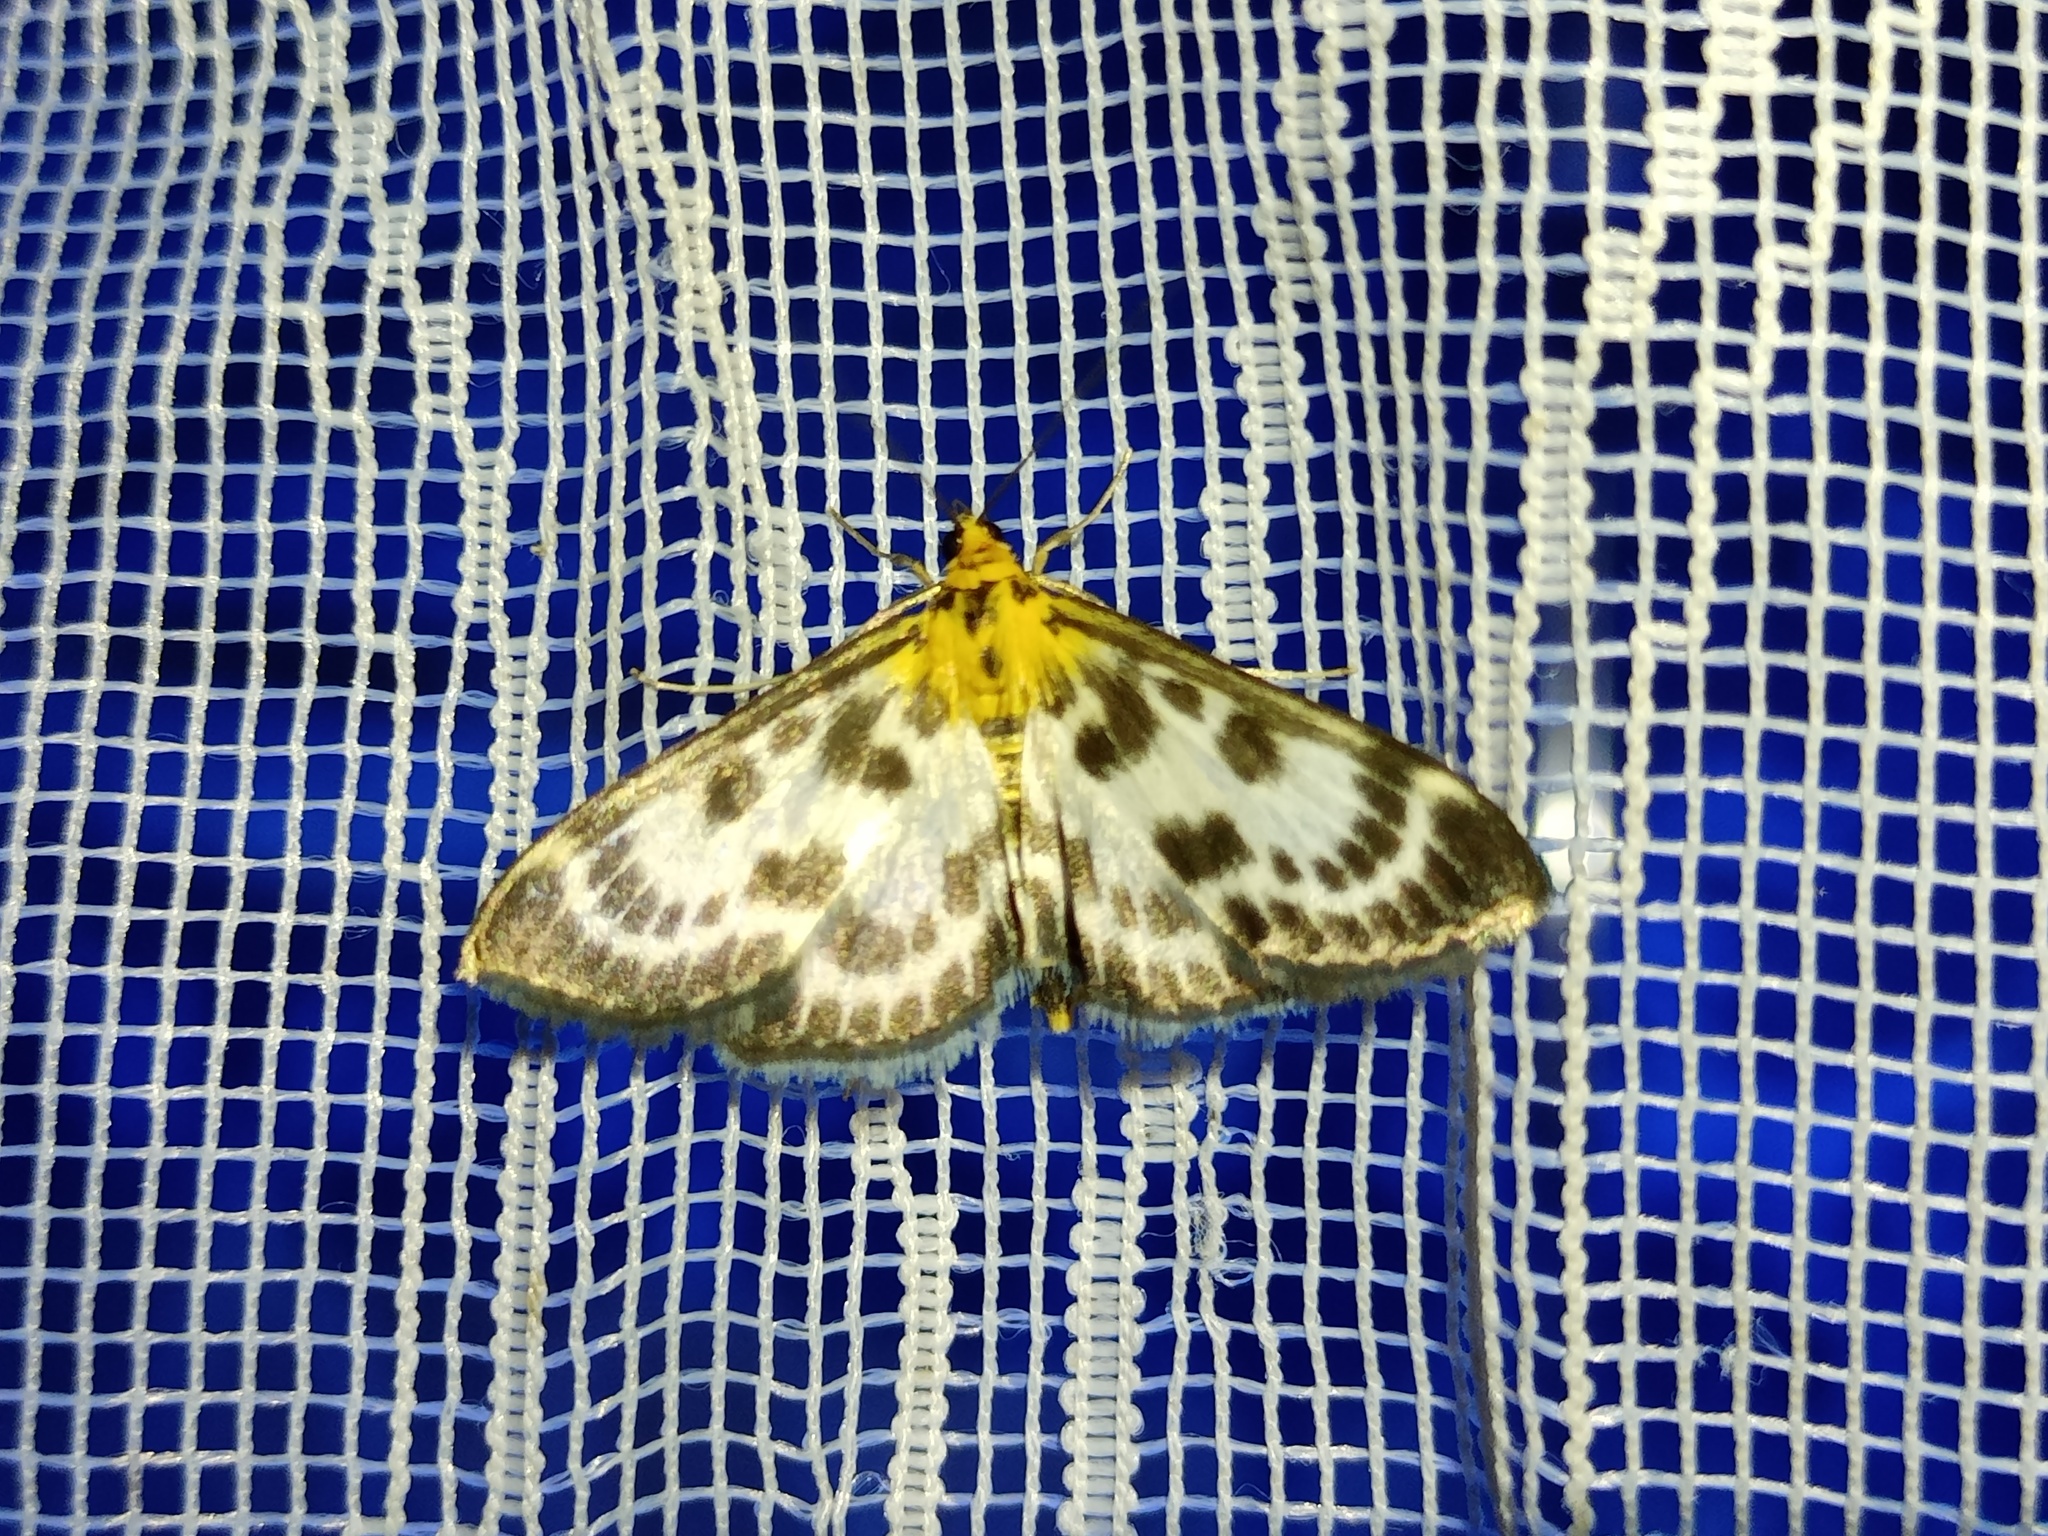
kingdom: Animalia
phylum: Arthropoda
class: Insecta
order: Lepidoptera
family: Crambidae
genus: Anania
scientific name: Anania hortulata
